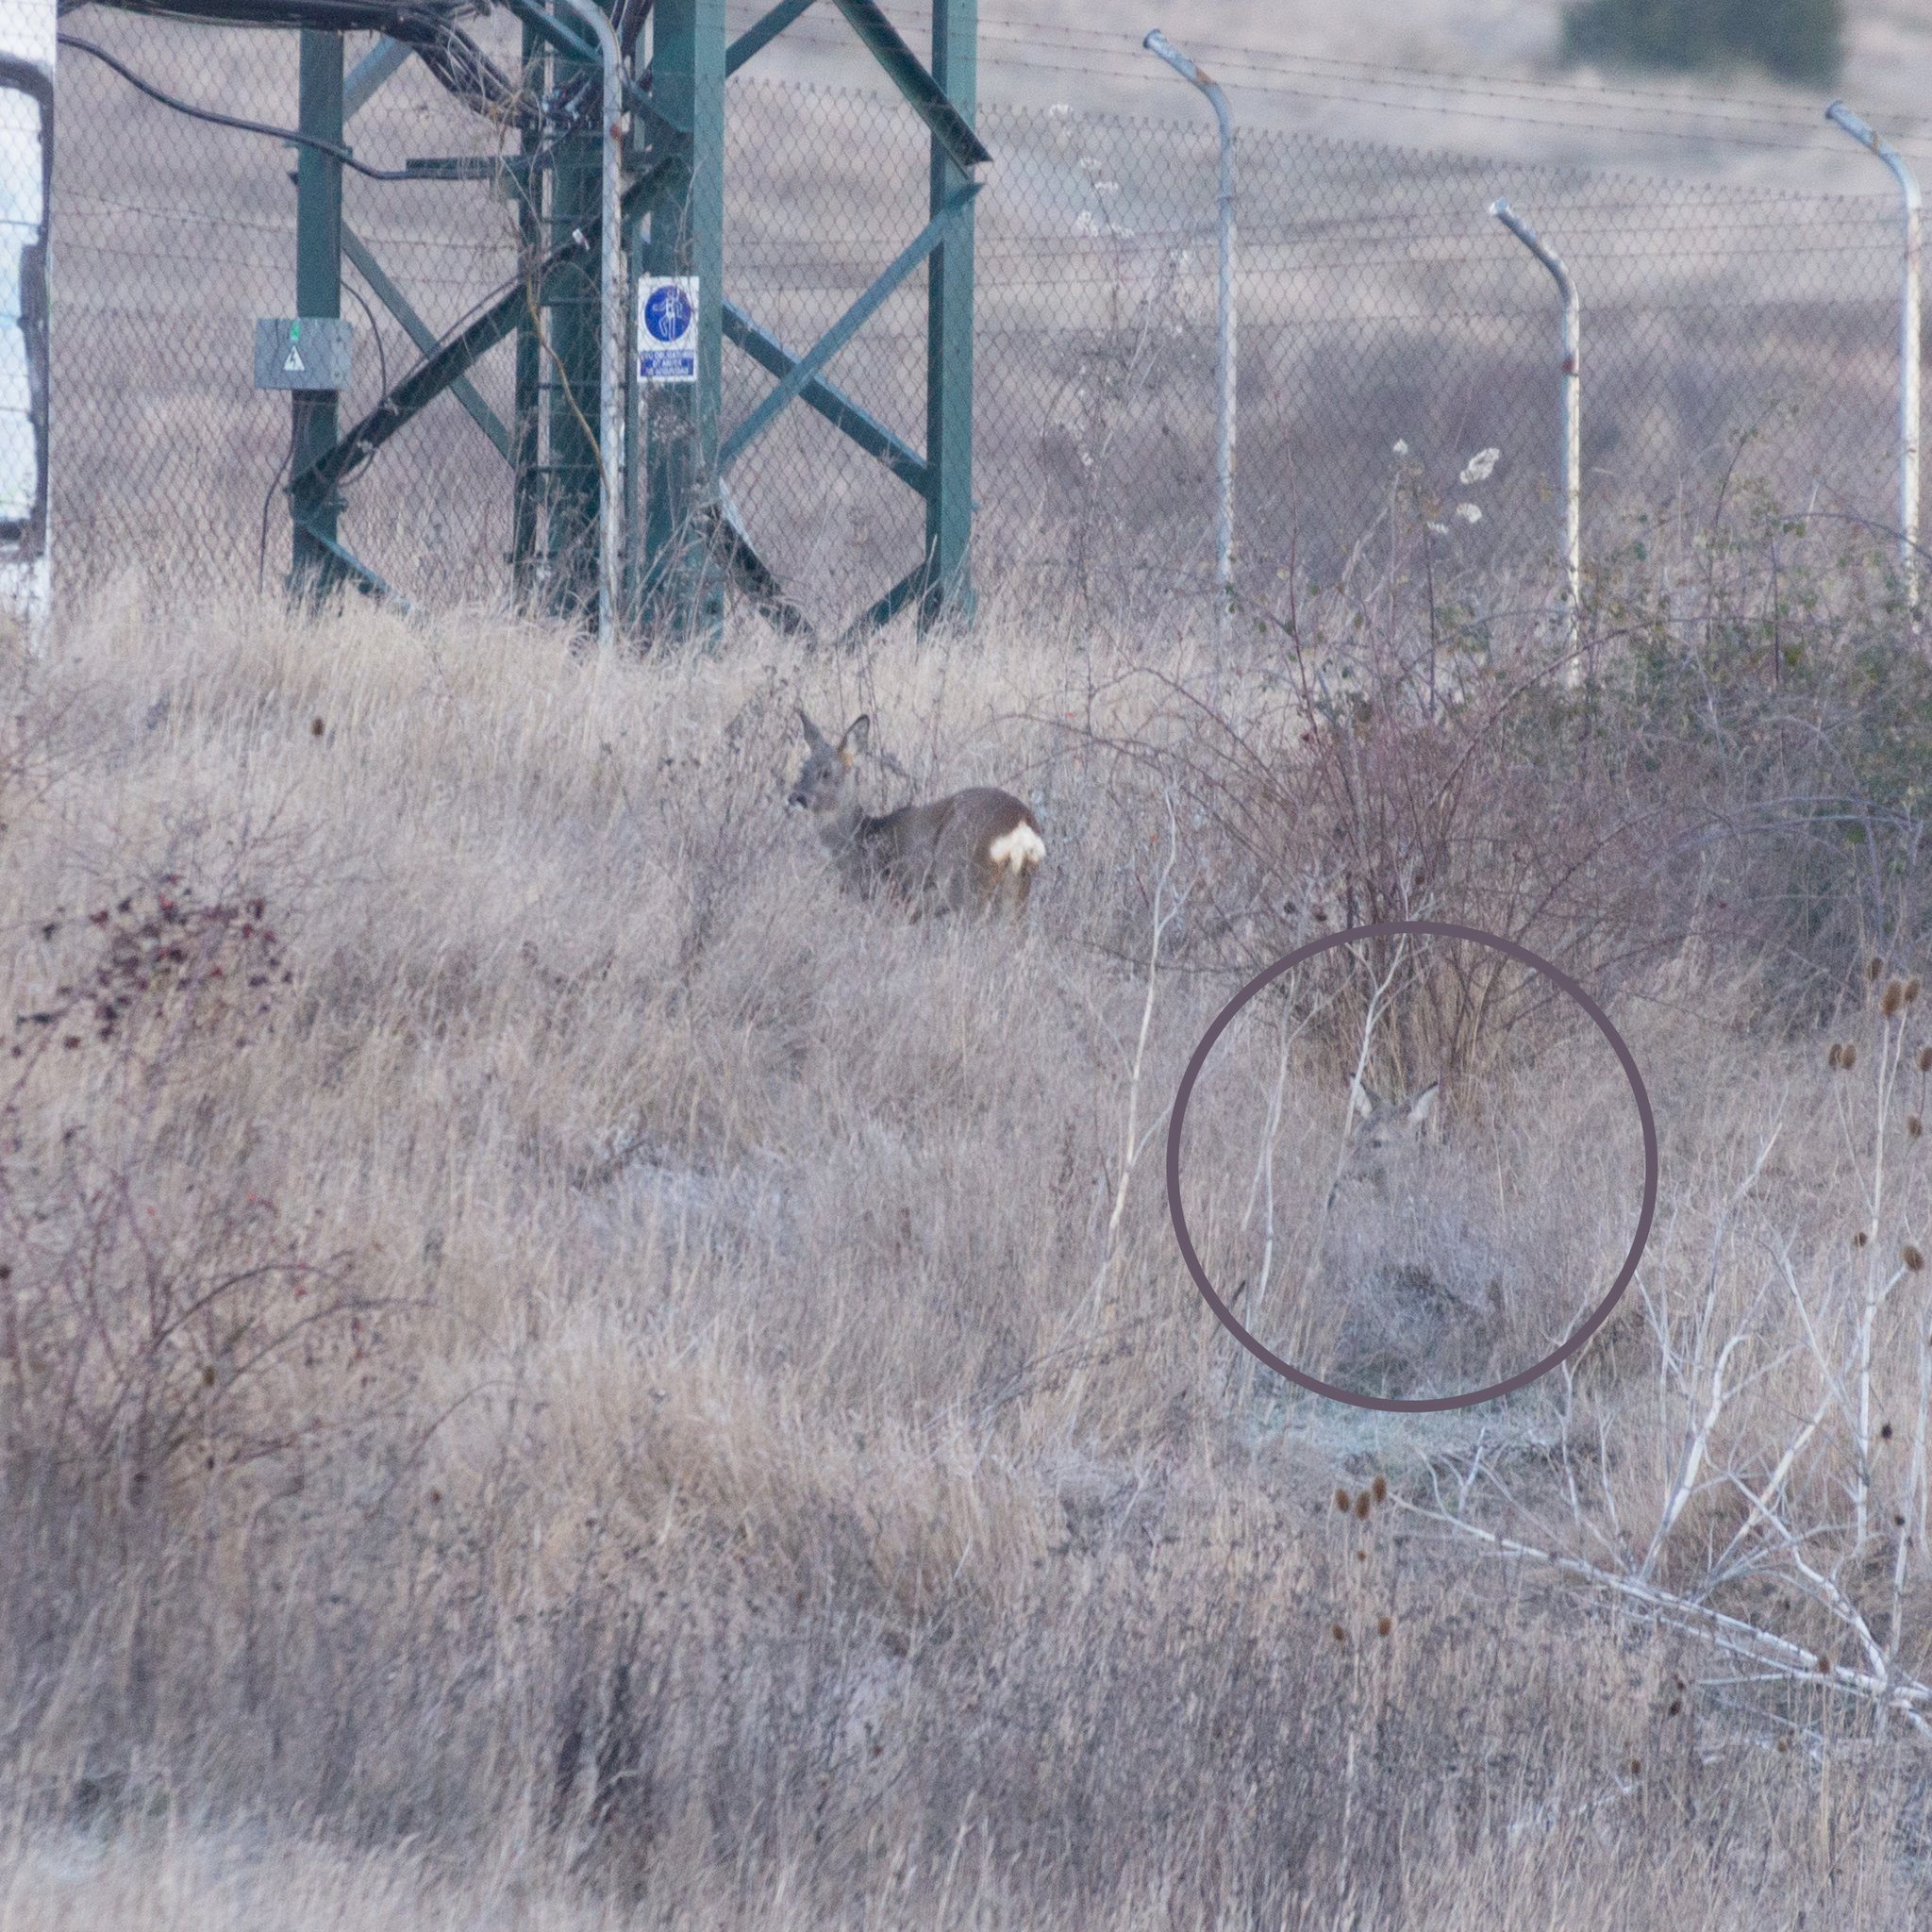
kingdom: Animalia
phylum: Chordata
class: Mammalia
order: Artiodactyla
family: Cervidae
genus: Capreolus
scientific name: Capreolus capreolus
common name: Western roe deer
